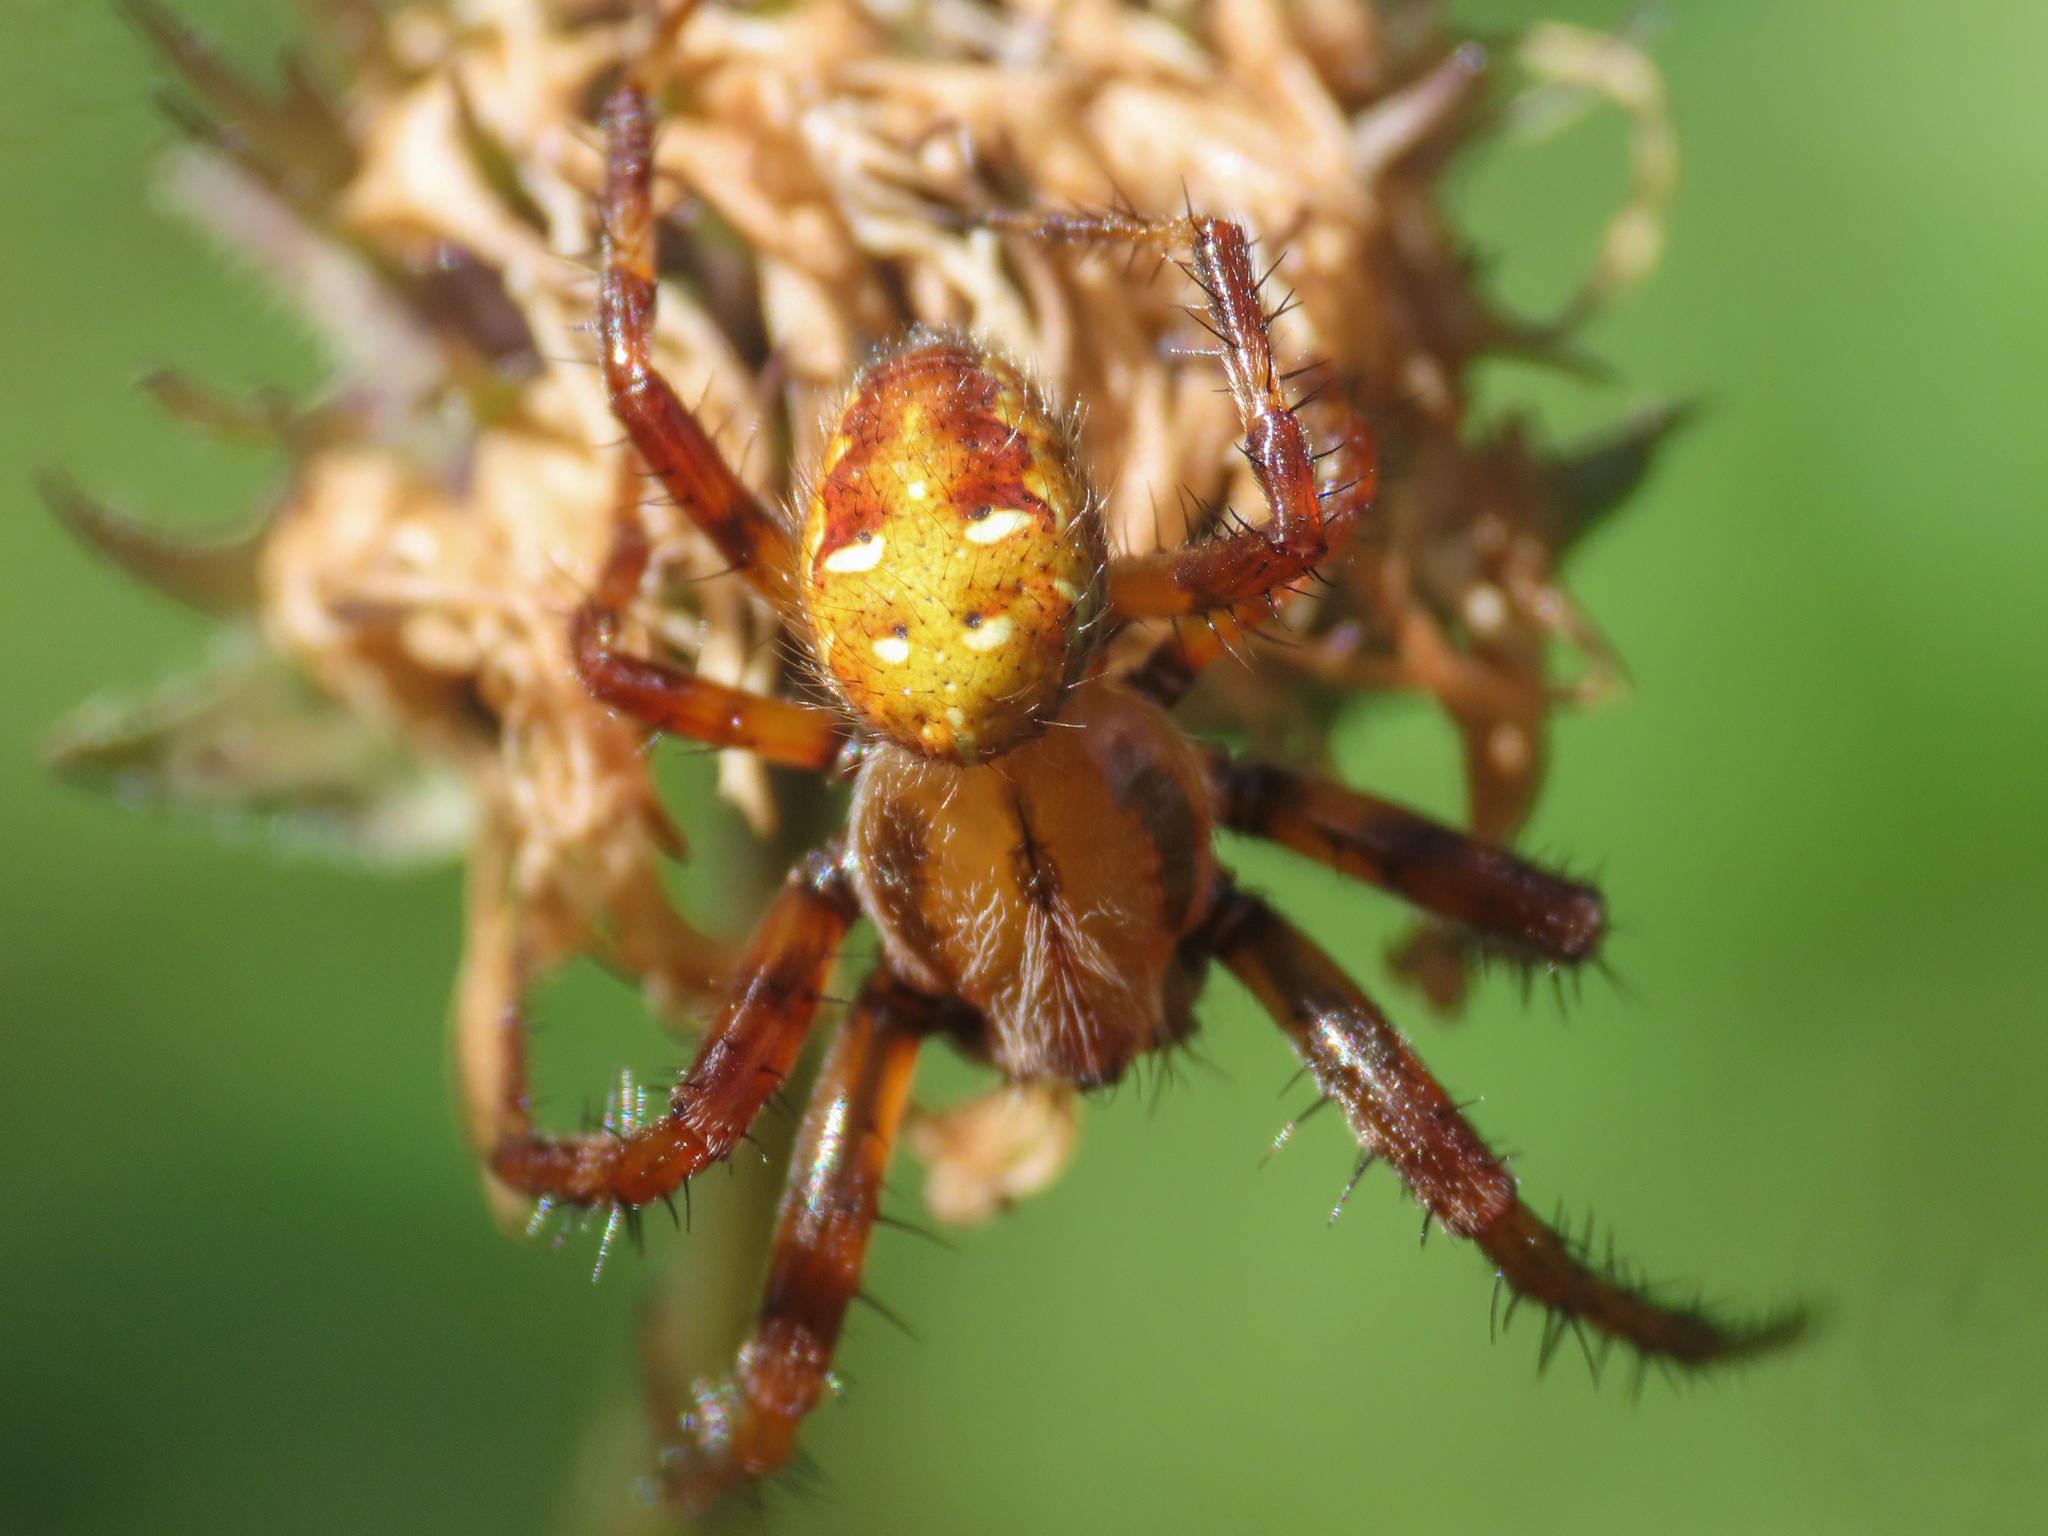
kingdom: Animalia
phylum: Arthropoda
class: Arachnida
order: Araneae
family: Araneidae
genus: Araneus
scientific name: Araneus quadratus
